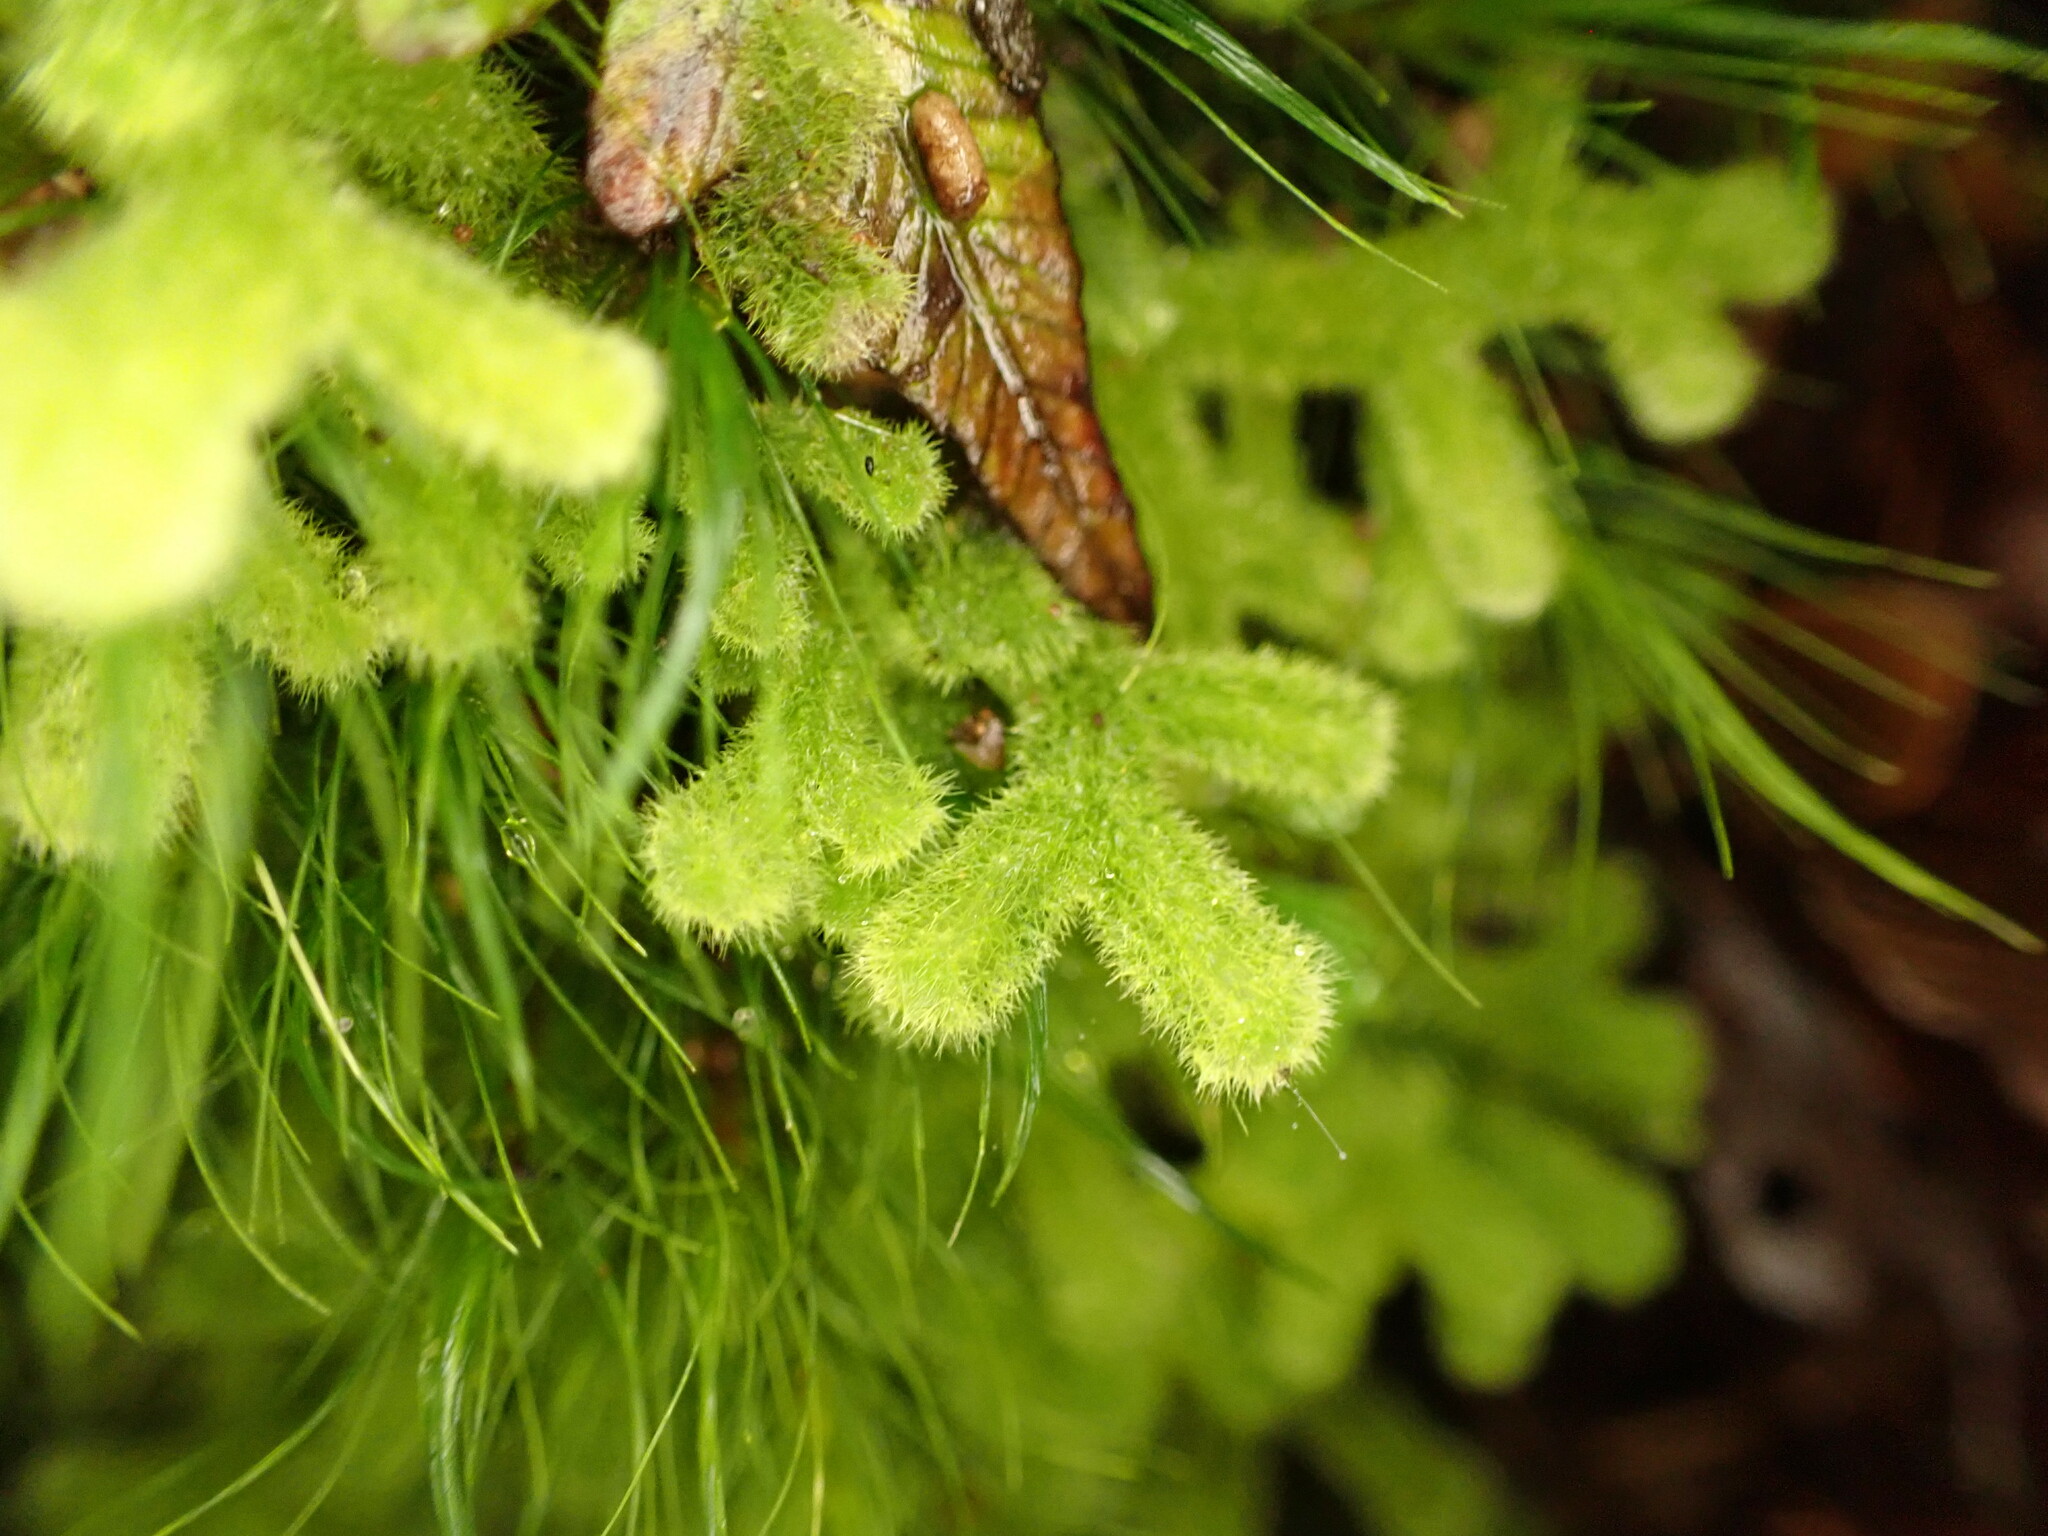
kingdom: Plantae
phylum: Marchantiophyta
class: Jungermanniopsida
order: Jungermanniales
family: Trichocoleaceae
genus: Leiomitra
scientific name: Leiomitra lanata
